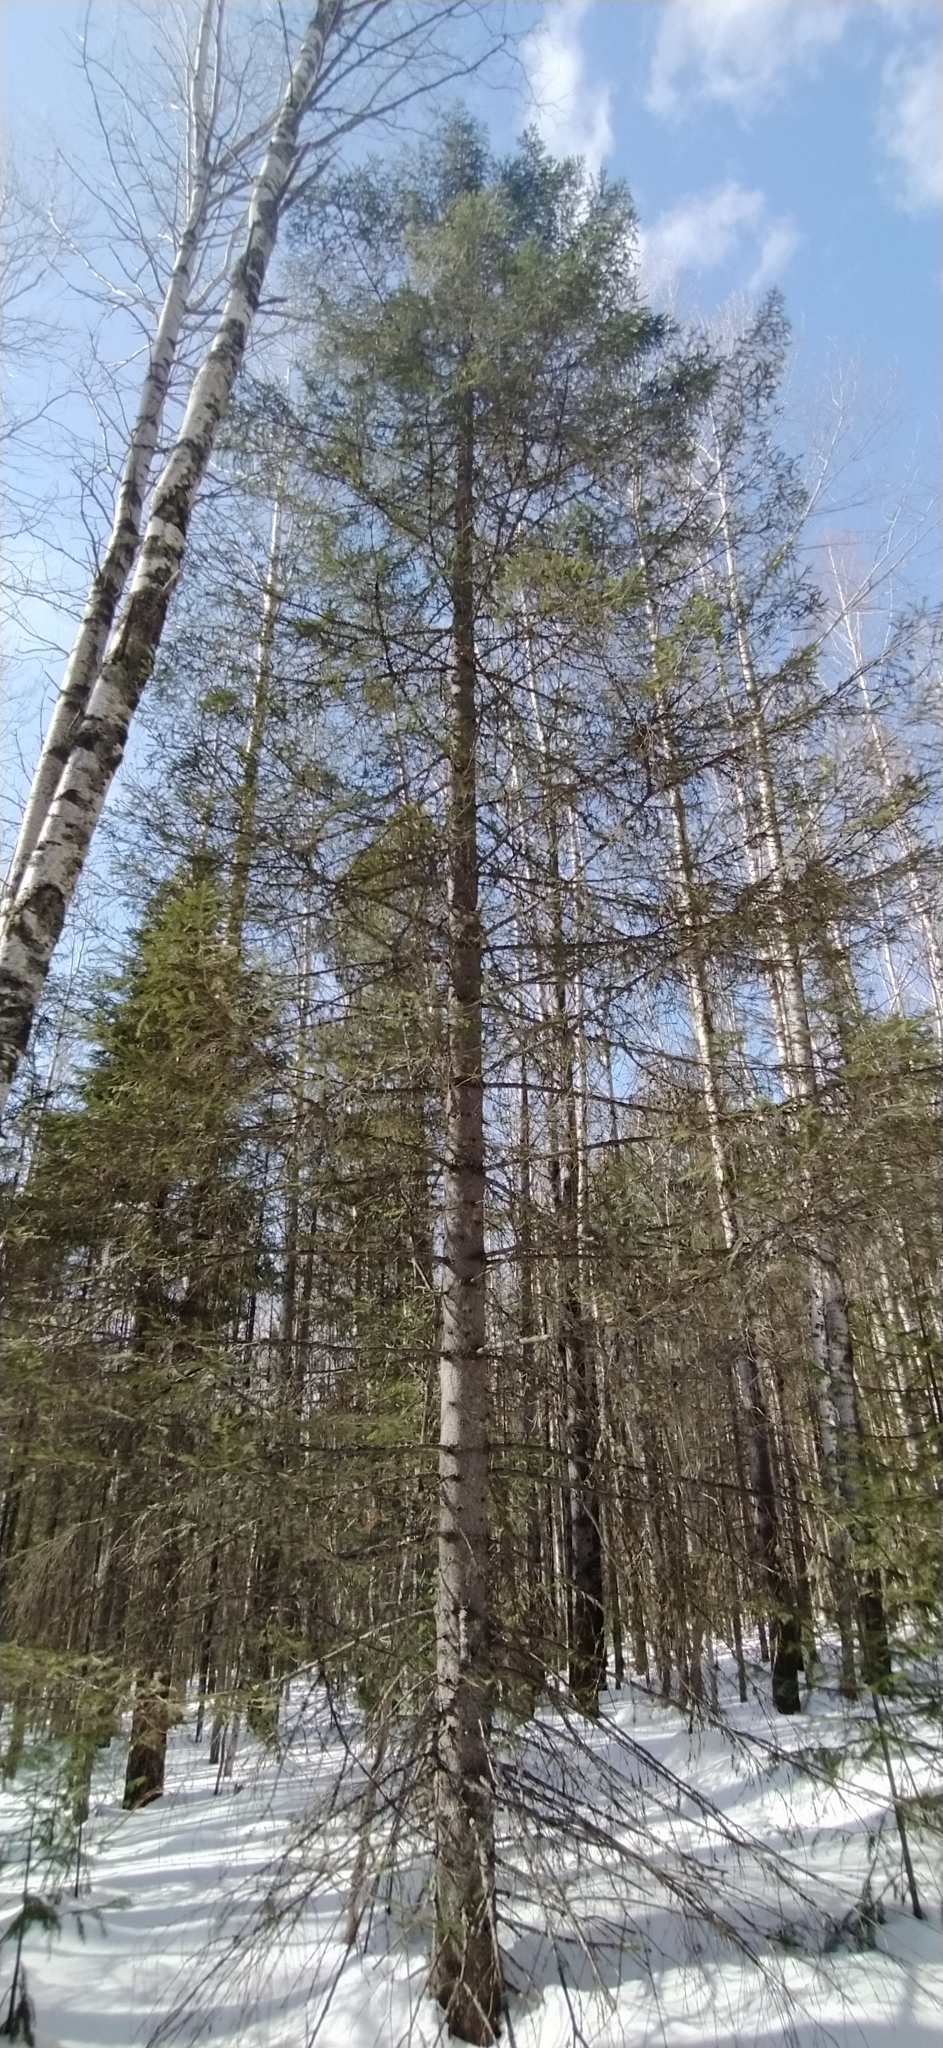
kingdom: Plantae
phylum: Tracheophyta
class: Pinopsida
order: Pinales
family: Pinaceae
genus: Picea
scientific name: Picea obovata
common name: Siberian spruce
